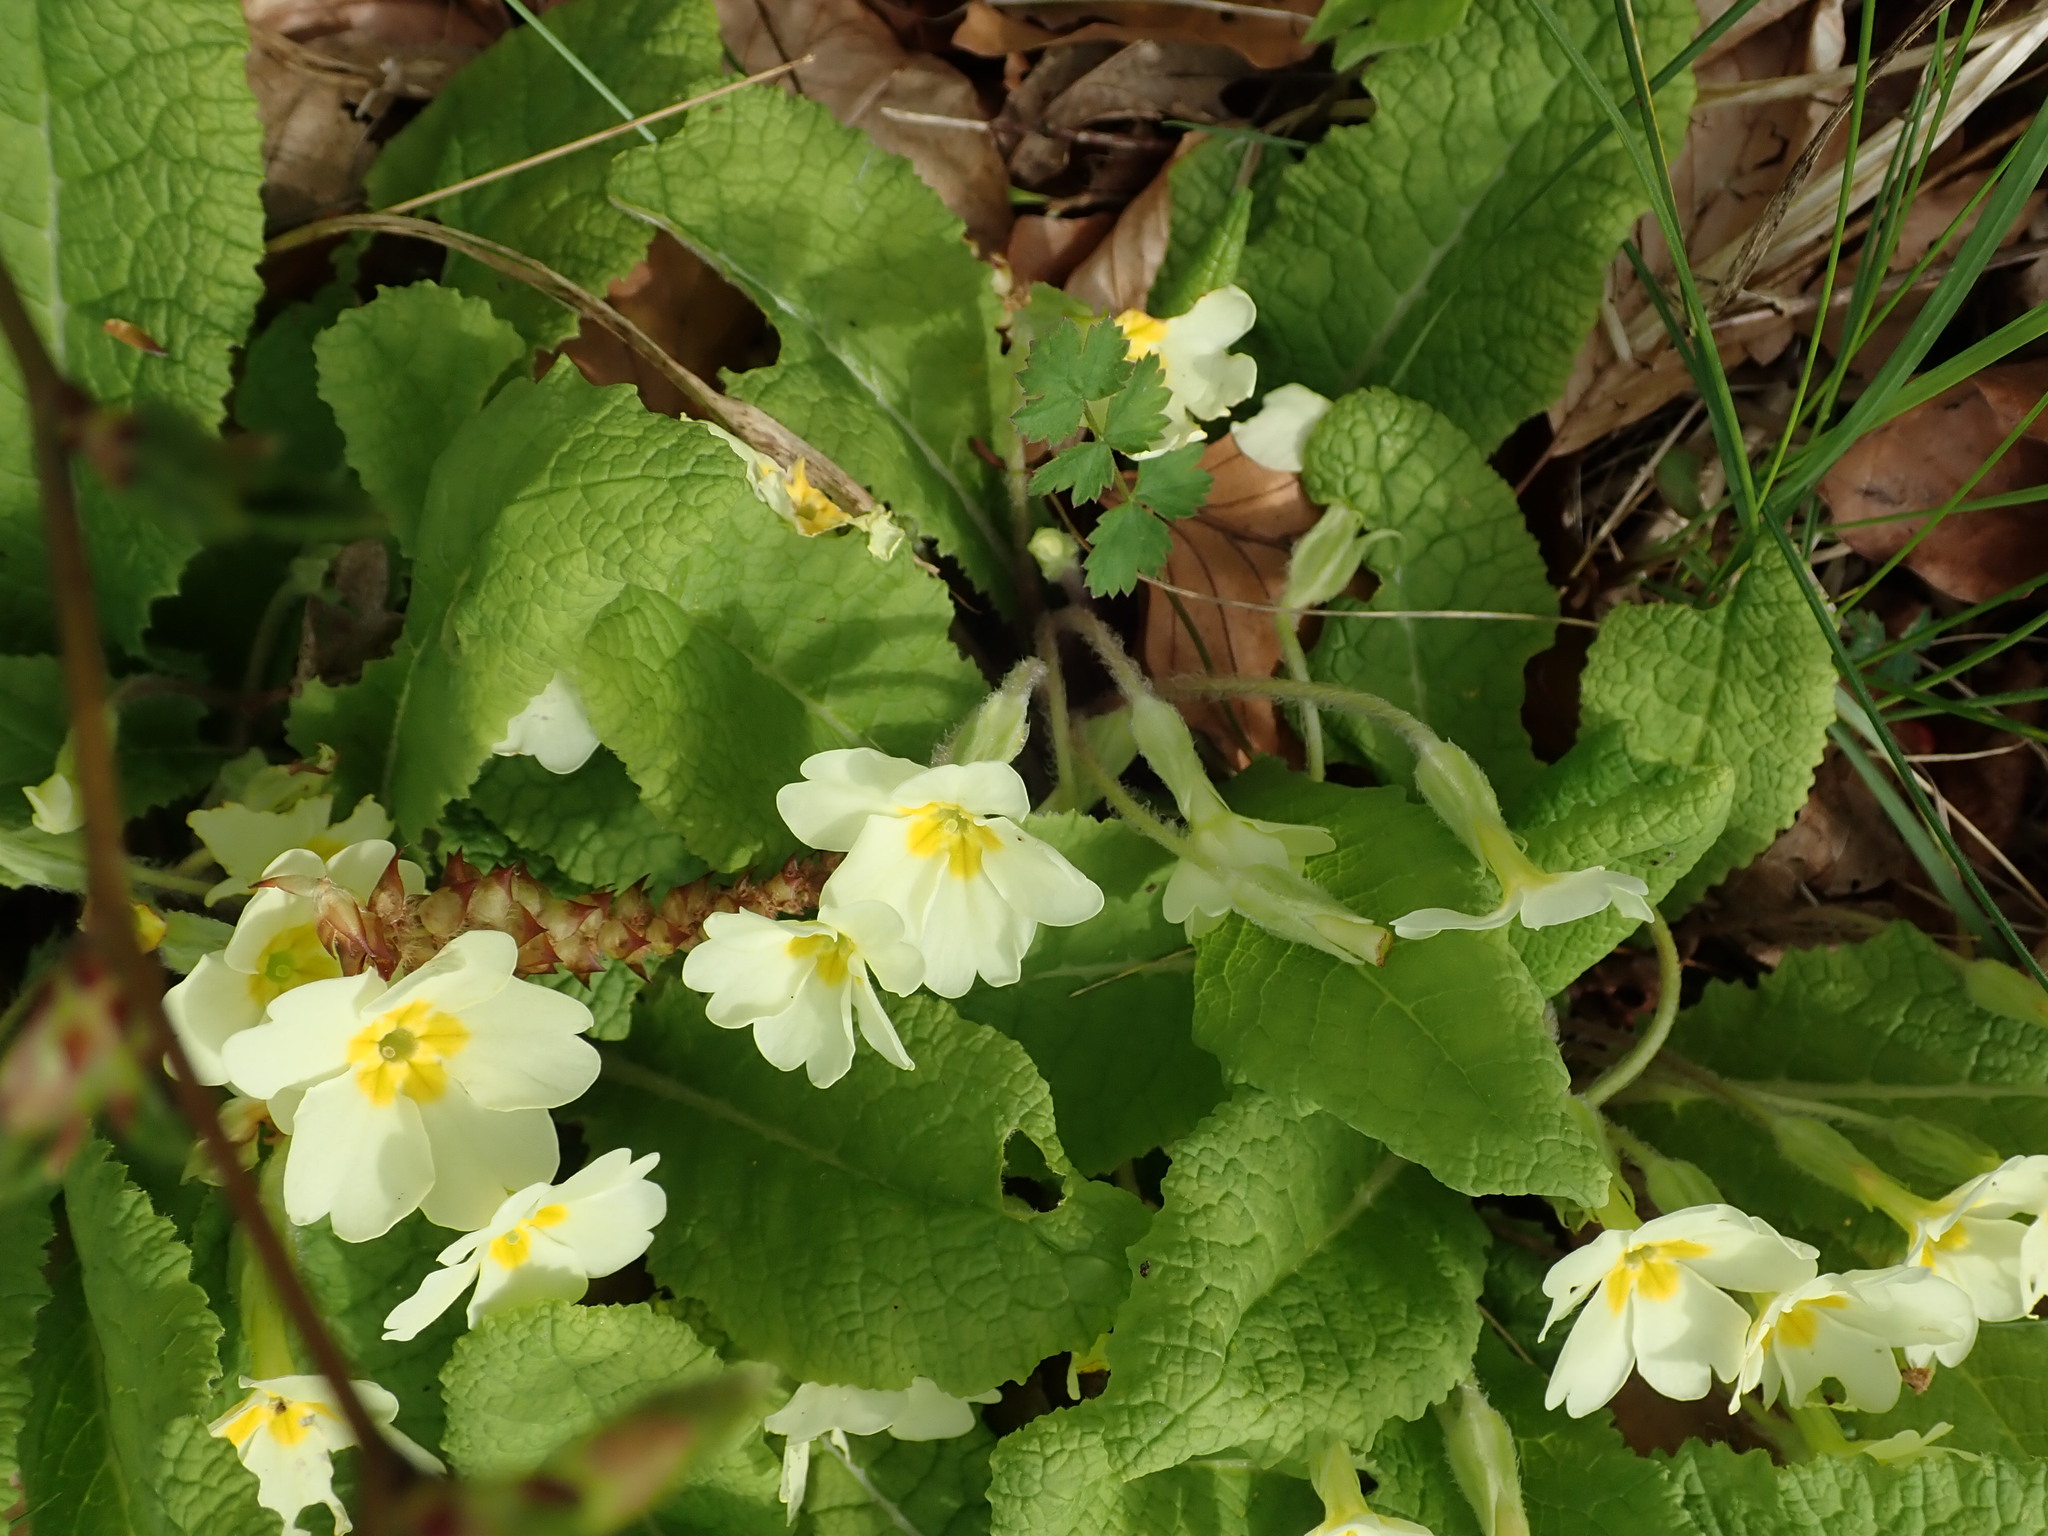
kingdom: Plantae
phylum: Tracheophyta
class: Magnoliopsida
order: Ericales
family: Primulaceae
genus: Primula
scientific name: Primula vulgaris
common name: Primrose
